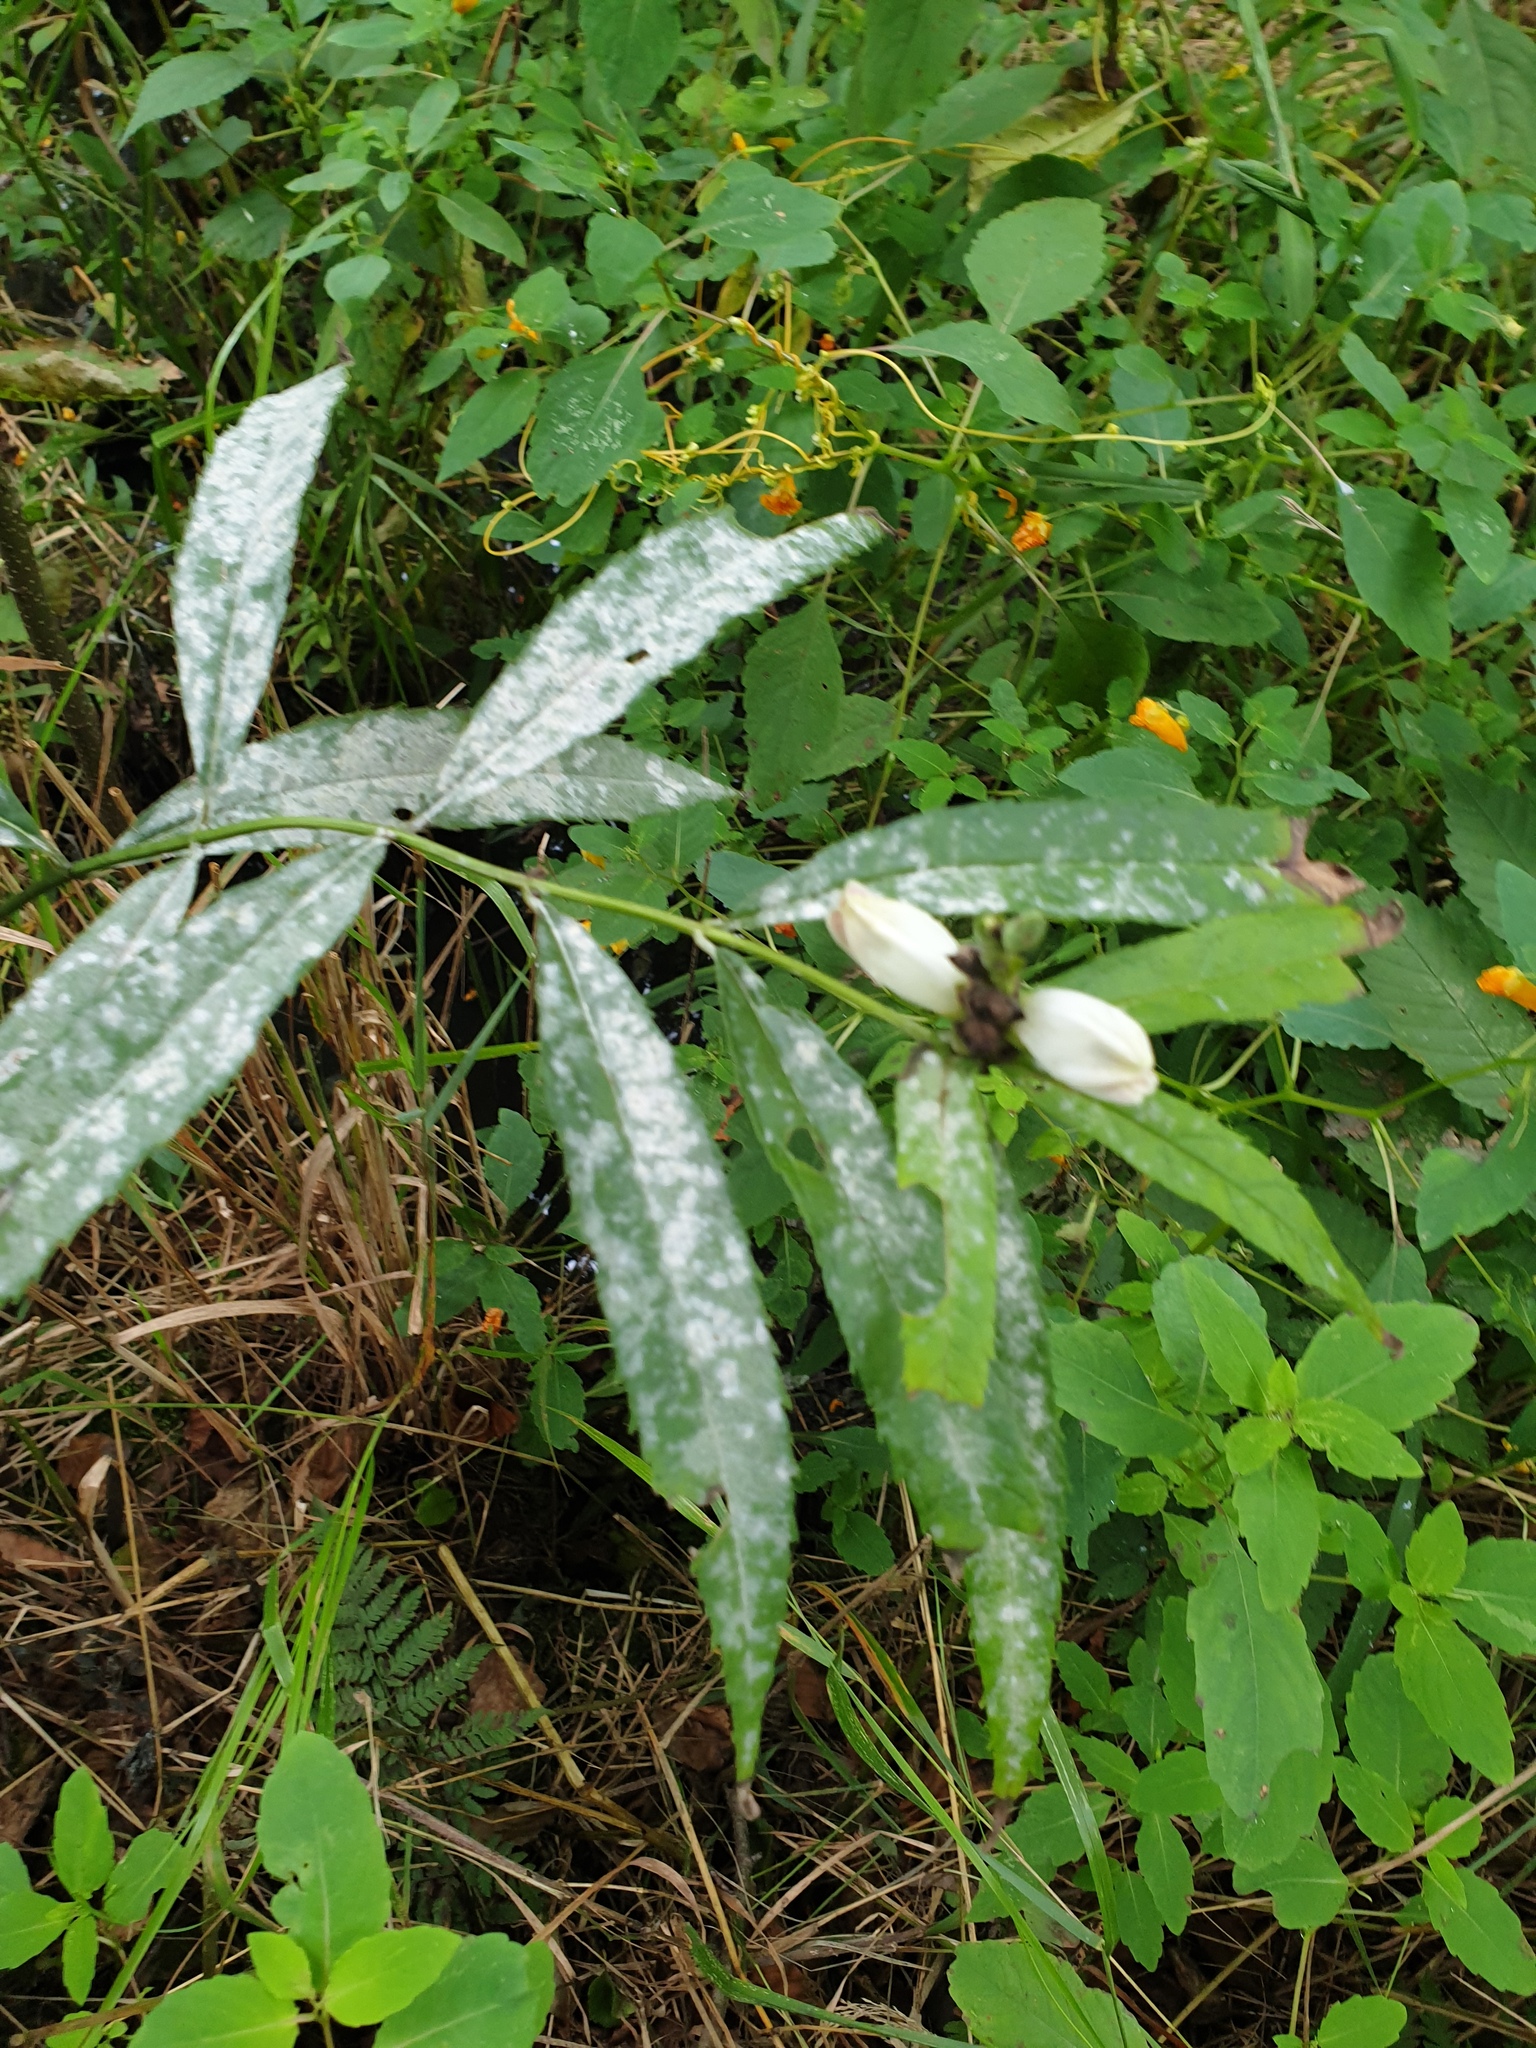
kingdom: Plantae
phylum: Tracheophyta
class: Magnoliopsida
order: Lamiales
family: Plantaginaceae
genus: Chelone
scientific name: Chelone glabra
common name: Snakehead
